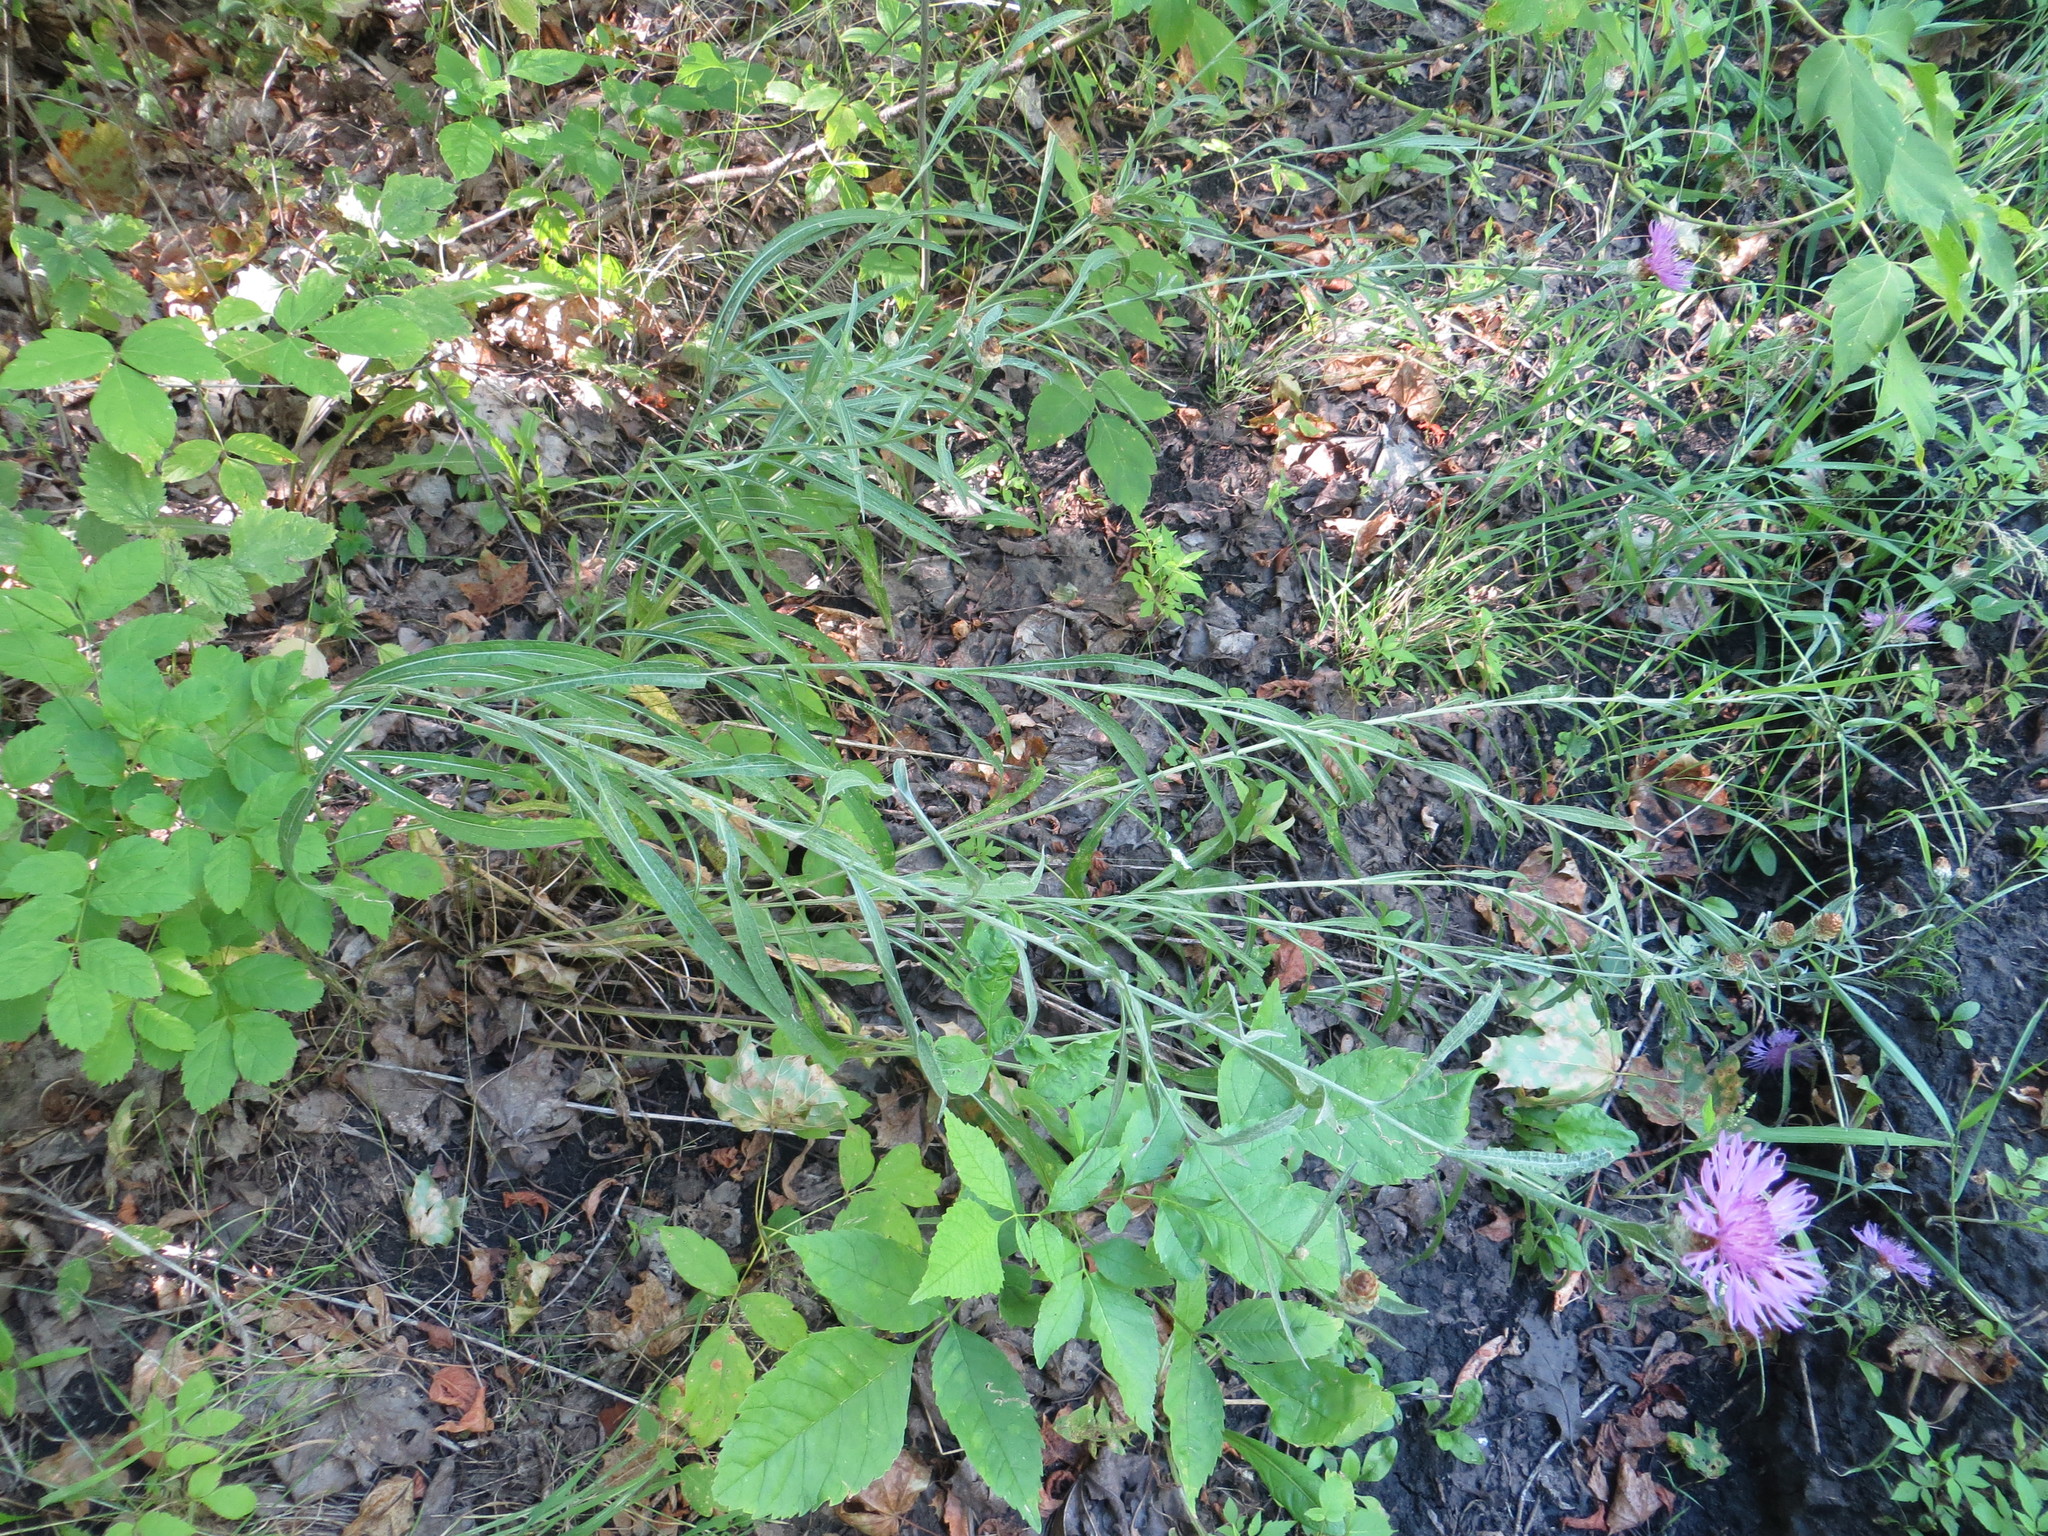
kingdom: Plantae
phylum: Tracheophyta
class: Magnoliopsida
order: Asterales
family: Asteraceae
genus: Centaurea
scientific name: Centaurea jacea
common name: Brown knapweed
